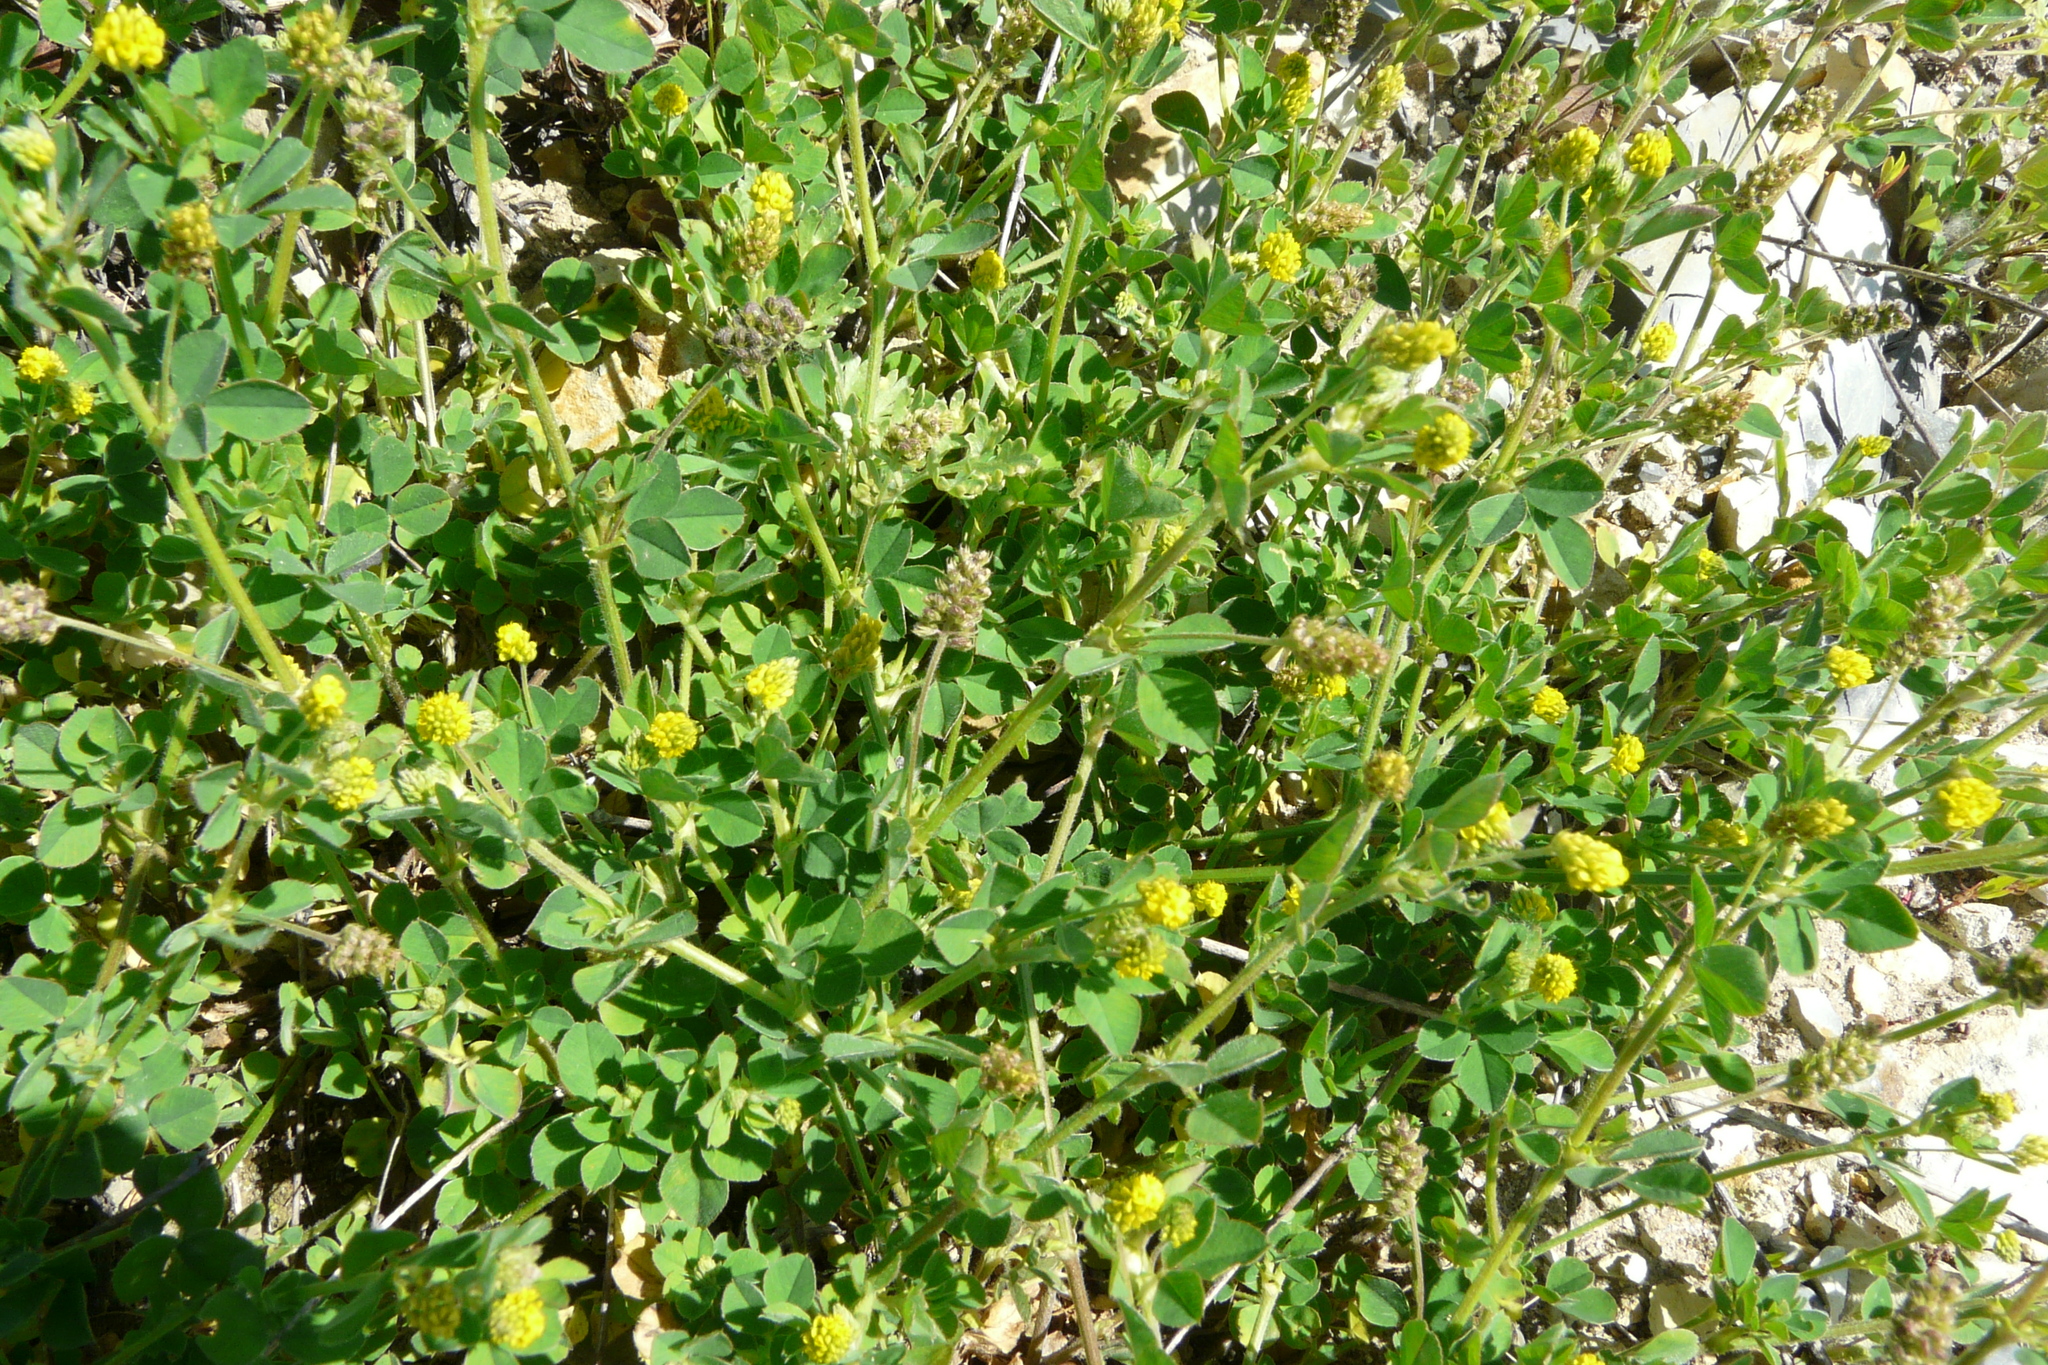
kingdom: Plantae
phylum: Tracheophyta
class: Magnoliopsida
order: Fabales
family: Fabaceae
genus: Medicago
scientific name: Medicago lupulina
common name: Black medick
